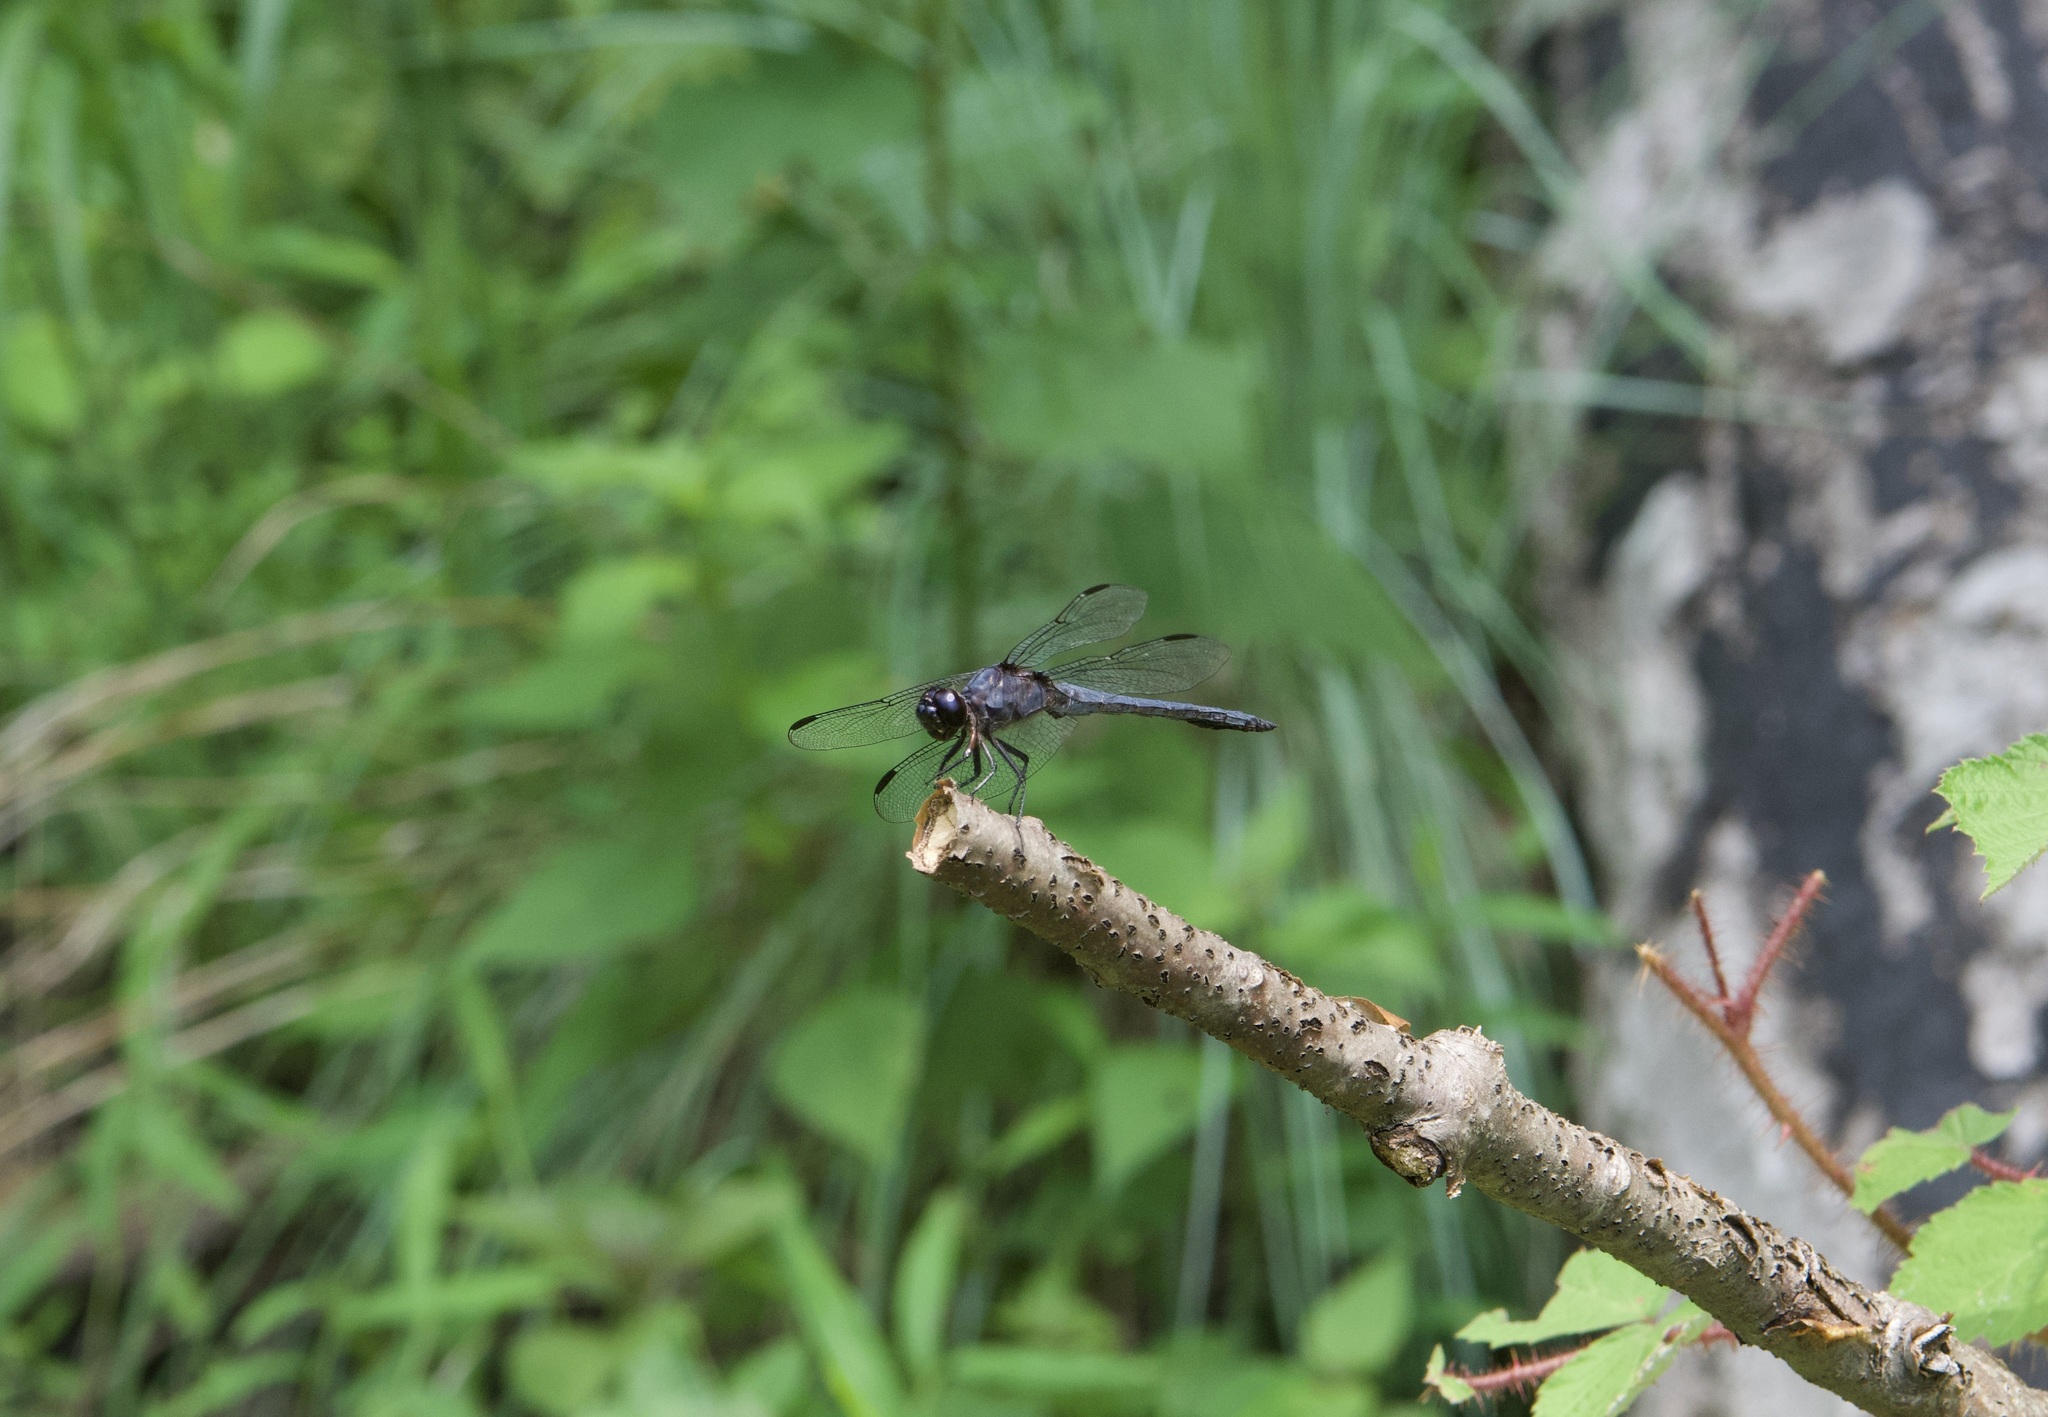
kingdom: Animalia
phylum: Arthropoda
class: Insecta
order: Odonata
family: Libellulidae
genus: Libellula
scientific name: Libellula incesta
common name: Slaty skimmer
